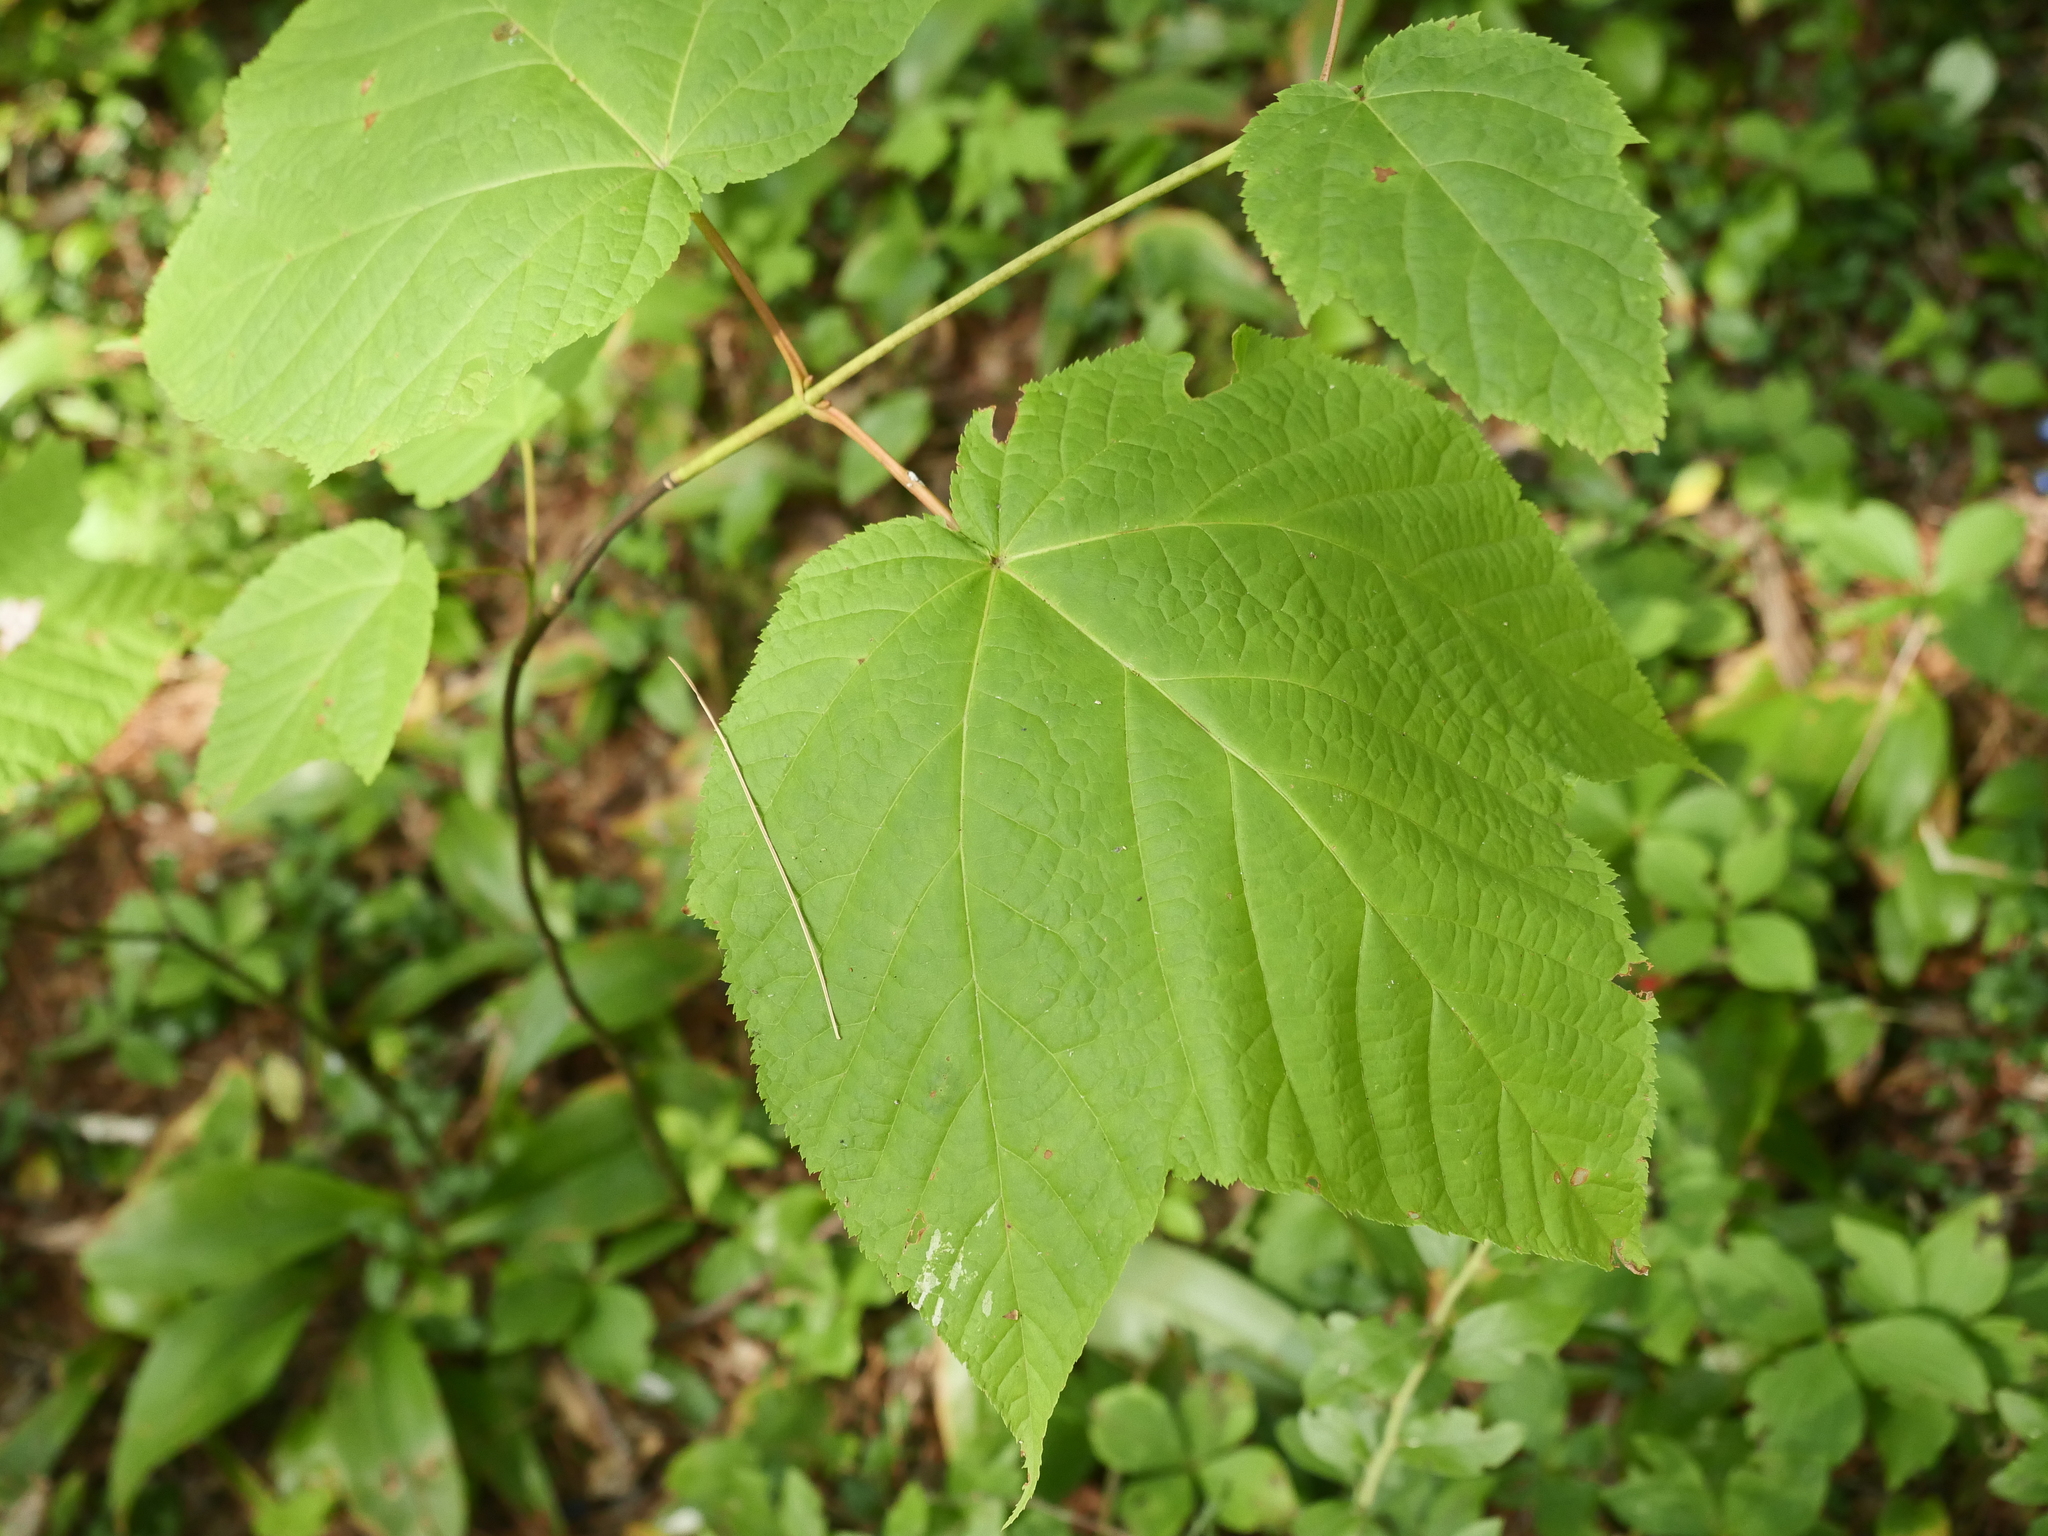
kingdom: Plantae
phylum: Tracheophyta
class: Magnoliopsida
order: Sapindales
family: Sapindaceae
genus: Acer
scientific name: Acer pensylvanicum
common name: Moosewood
